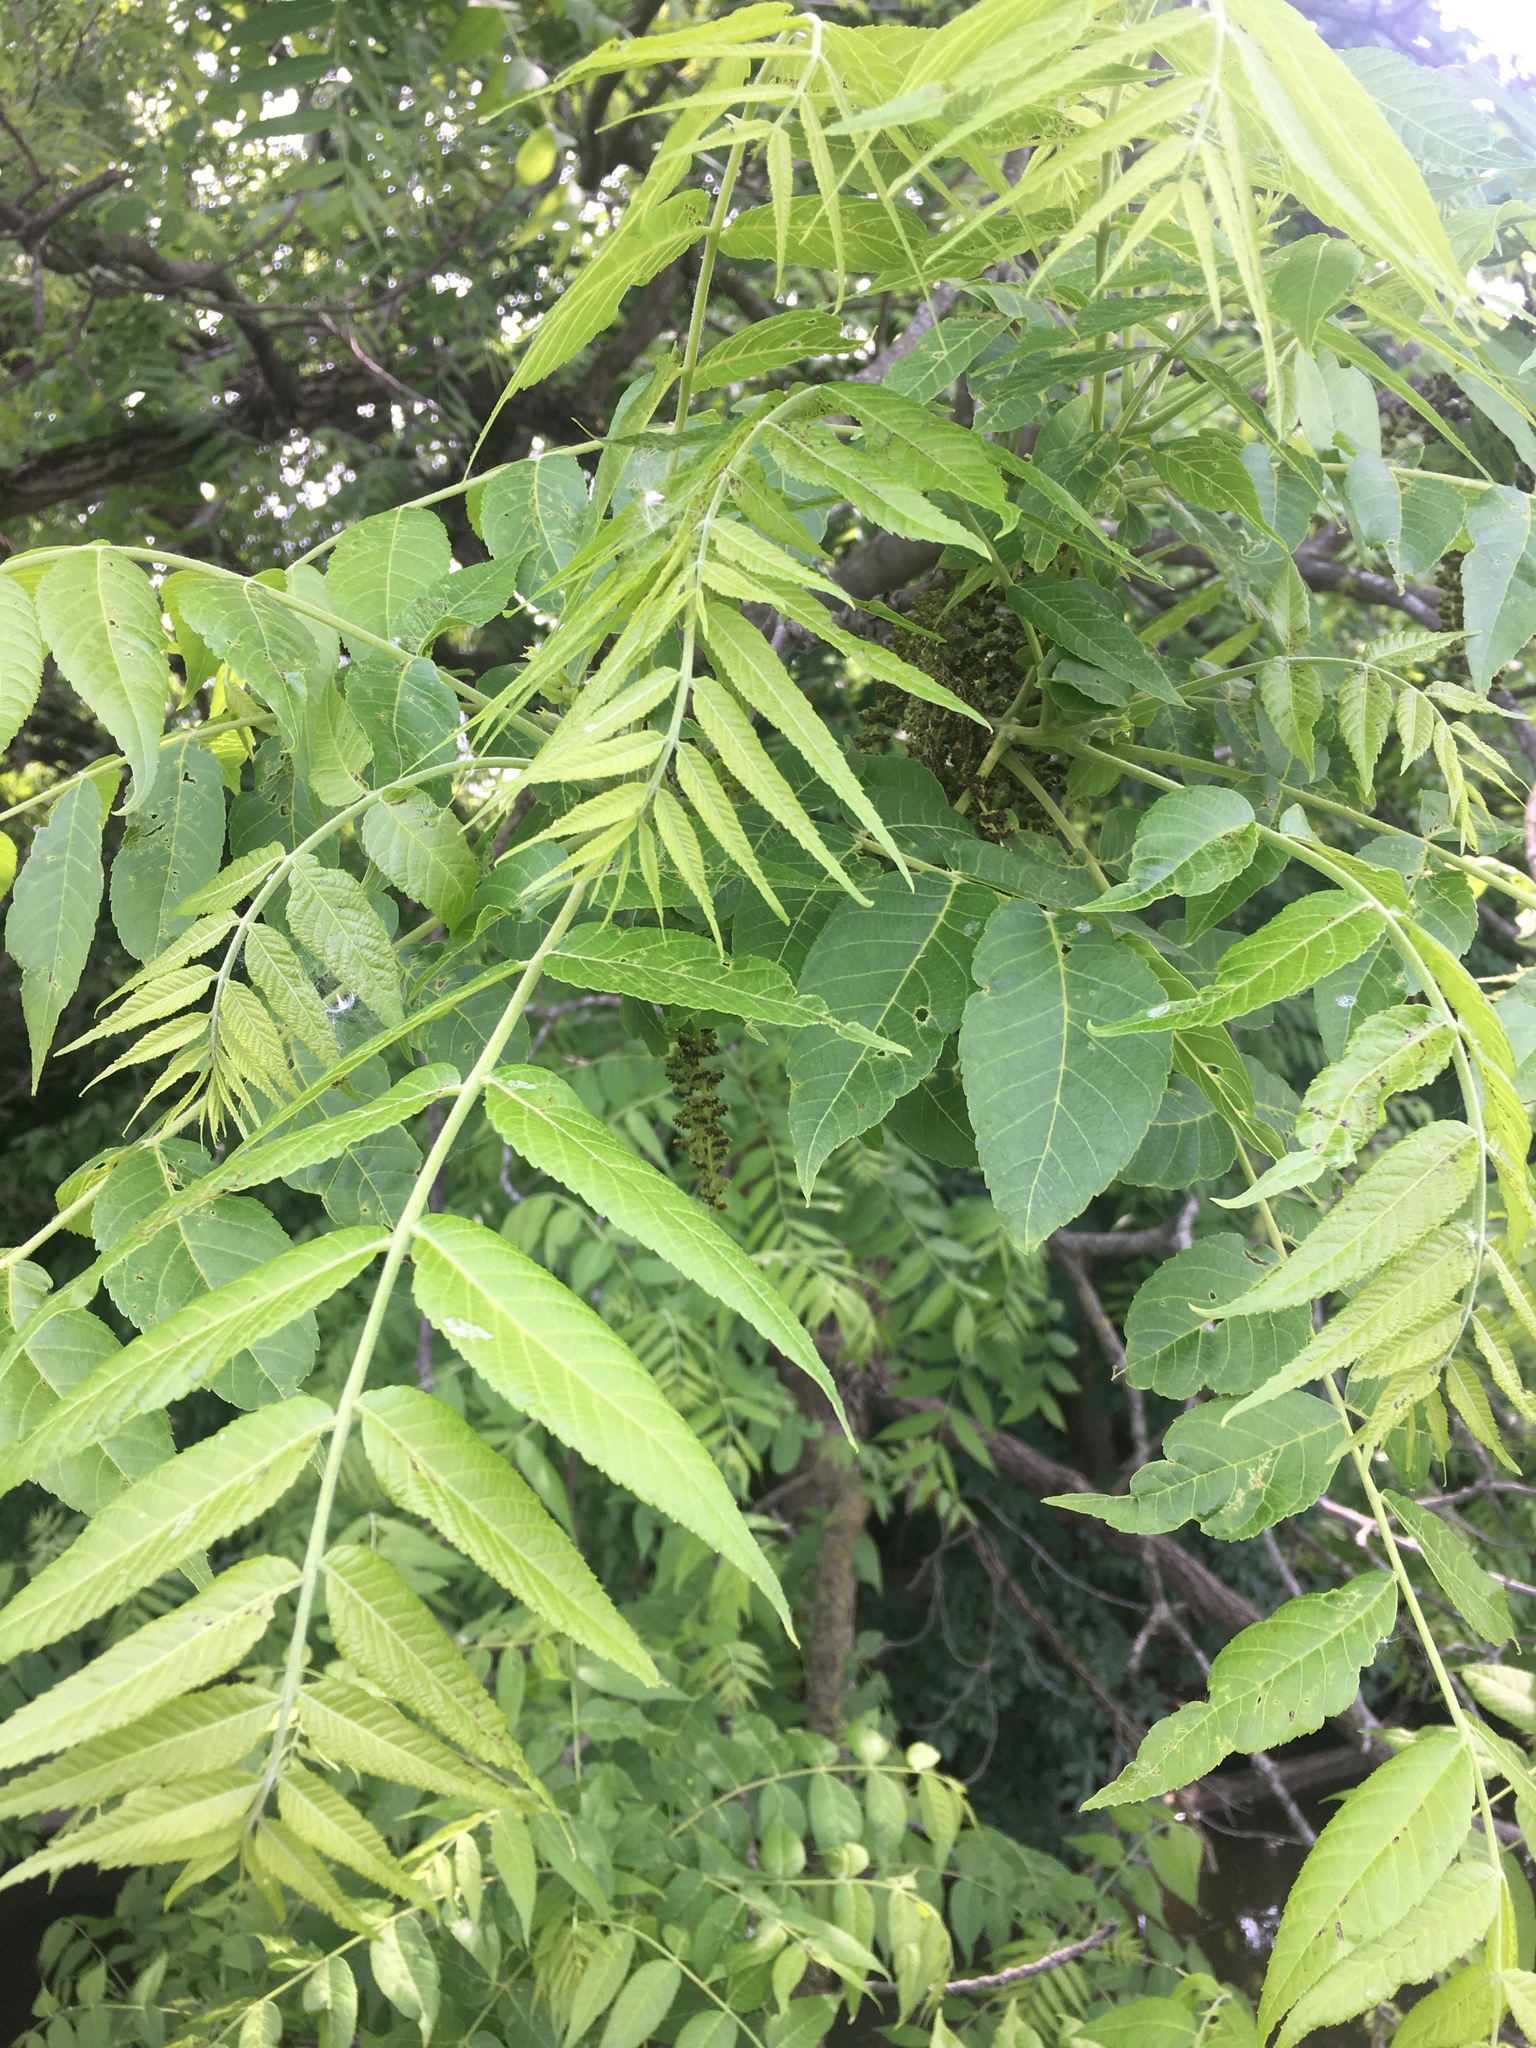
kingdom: Plantae
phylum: Tracheophyta
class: Magnoliopsida
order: Fagales
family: Juglandaceae
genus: Juglans
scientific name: Juglans nigra
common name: Black walnut
